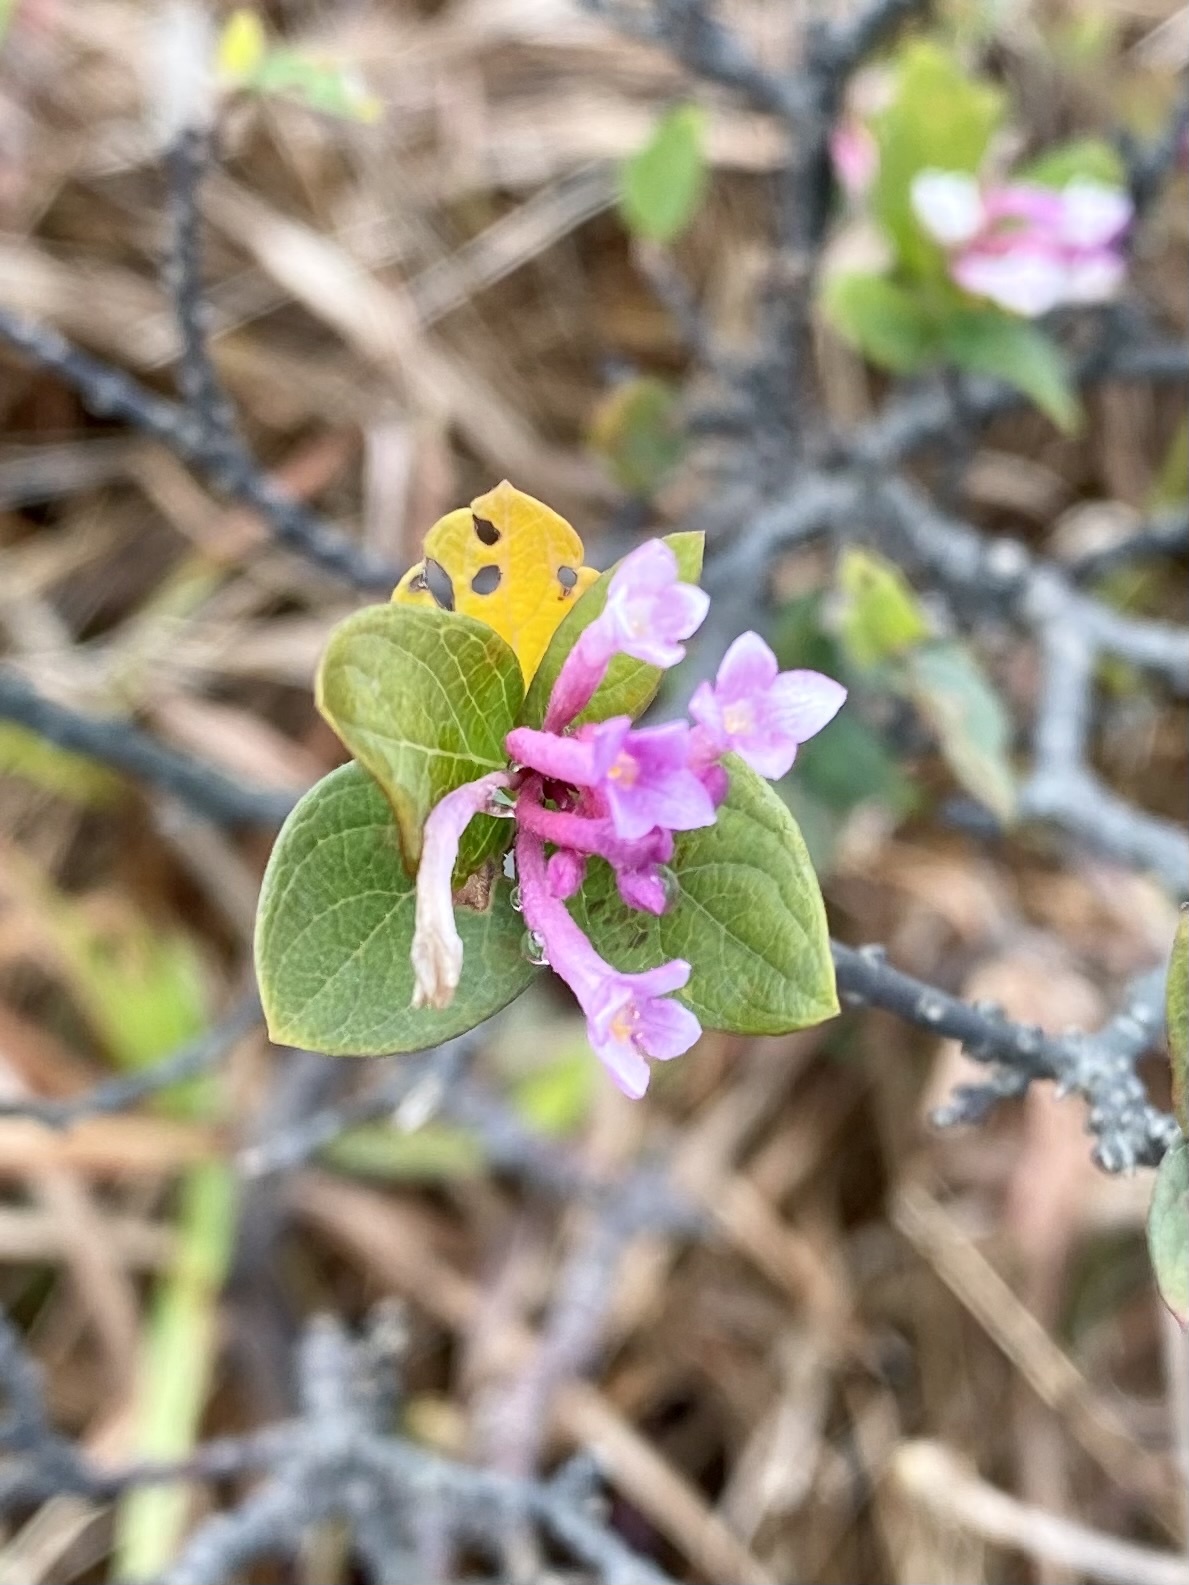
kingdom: Plantae
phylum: Tracheophyta
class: Magnoliopsida
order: Malvales
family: Thymelaeaceae
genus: Wikstroemia
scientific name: Wikstroemia monnula
